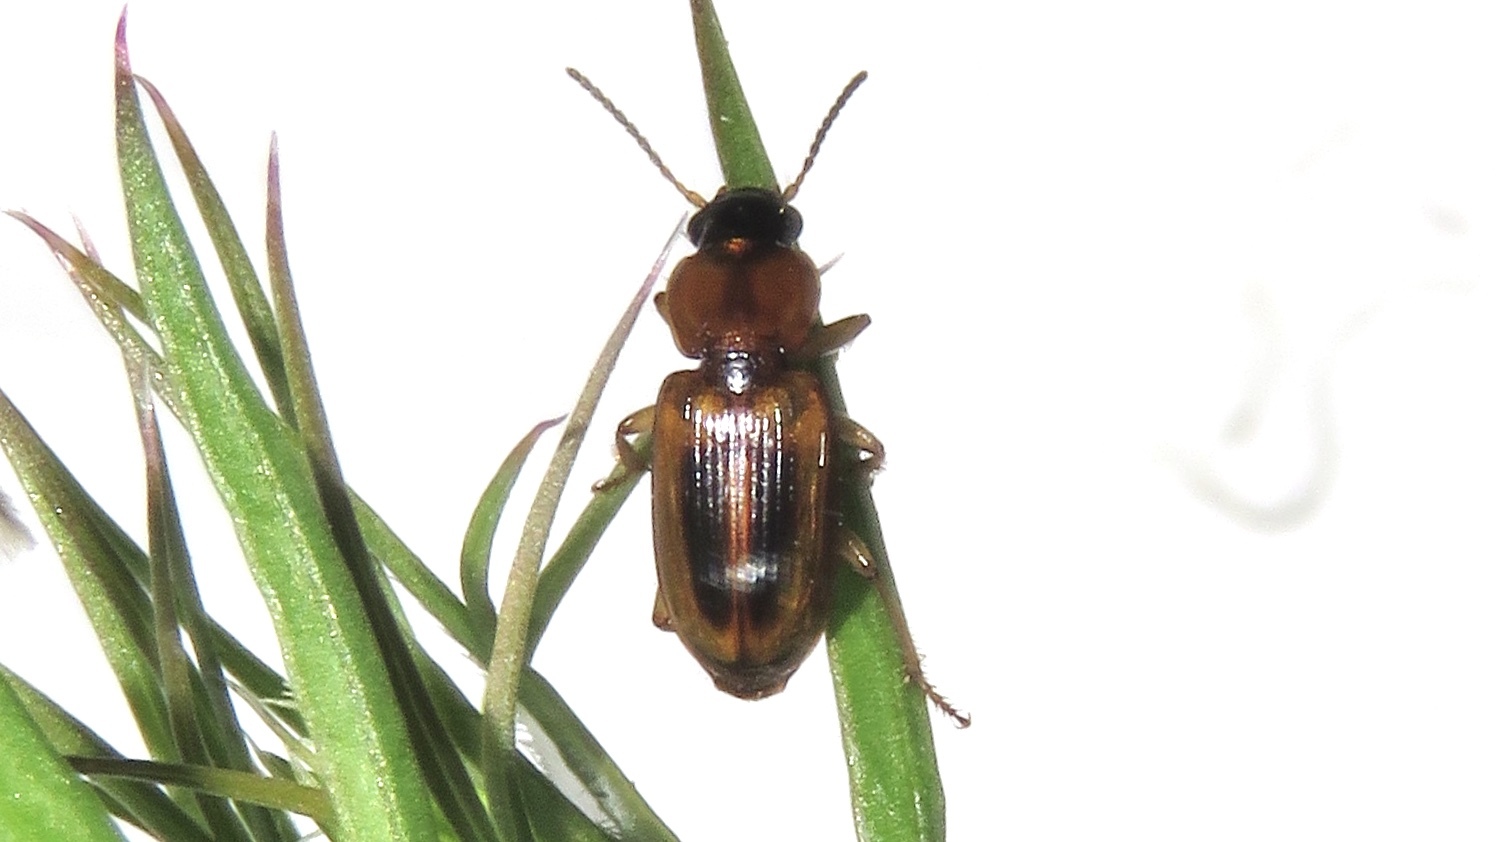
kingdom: Animalia
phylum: Arthropoda
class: Insecta
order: Coleoptera
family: Carabidae
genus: Stenolophus
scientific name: Stenolophus lecontei
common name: Leconte's seedcorn beetle
